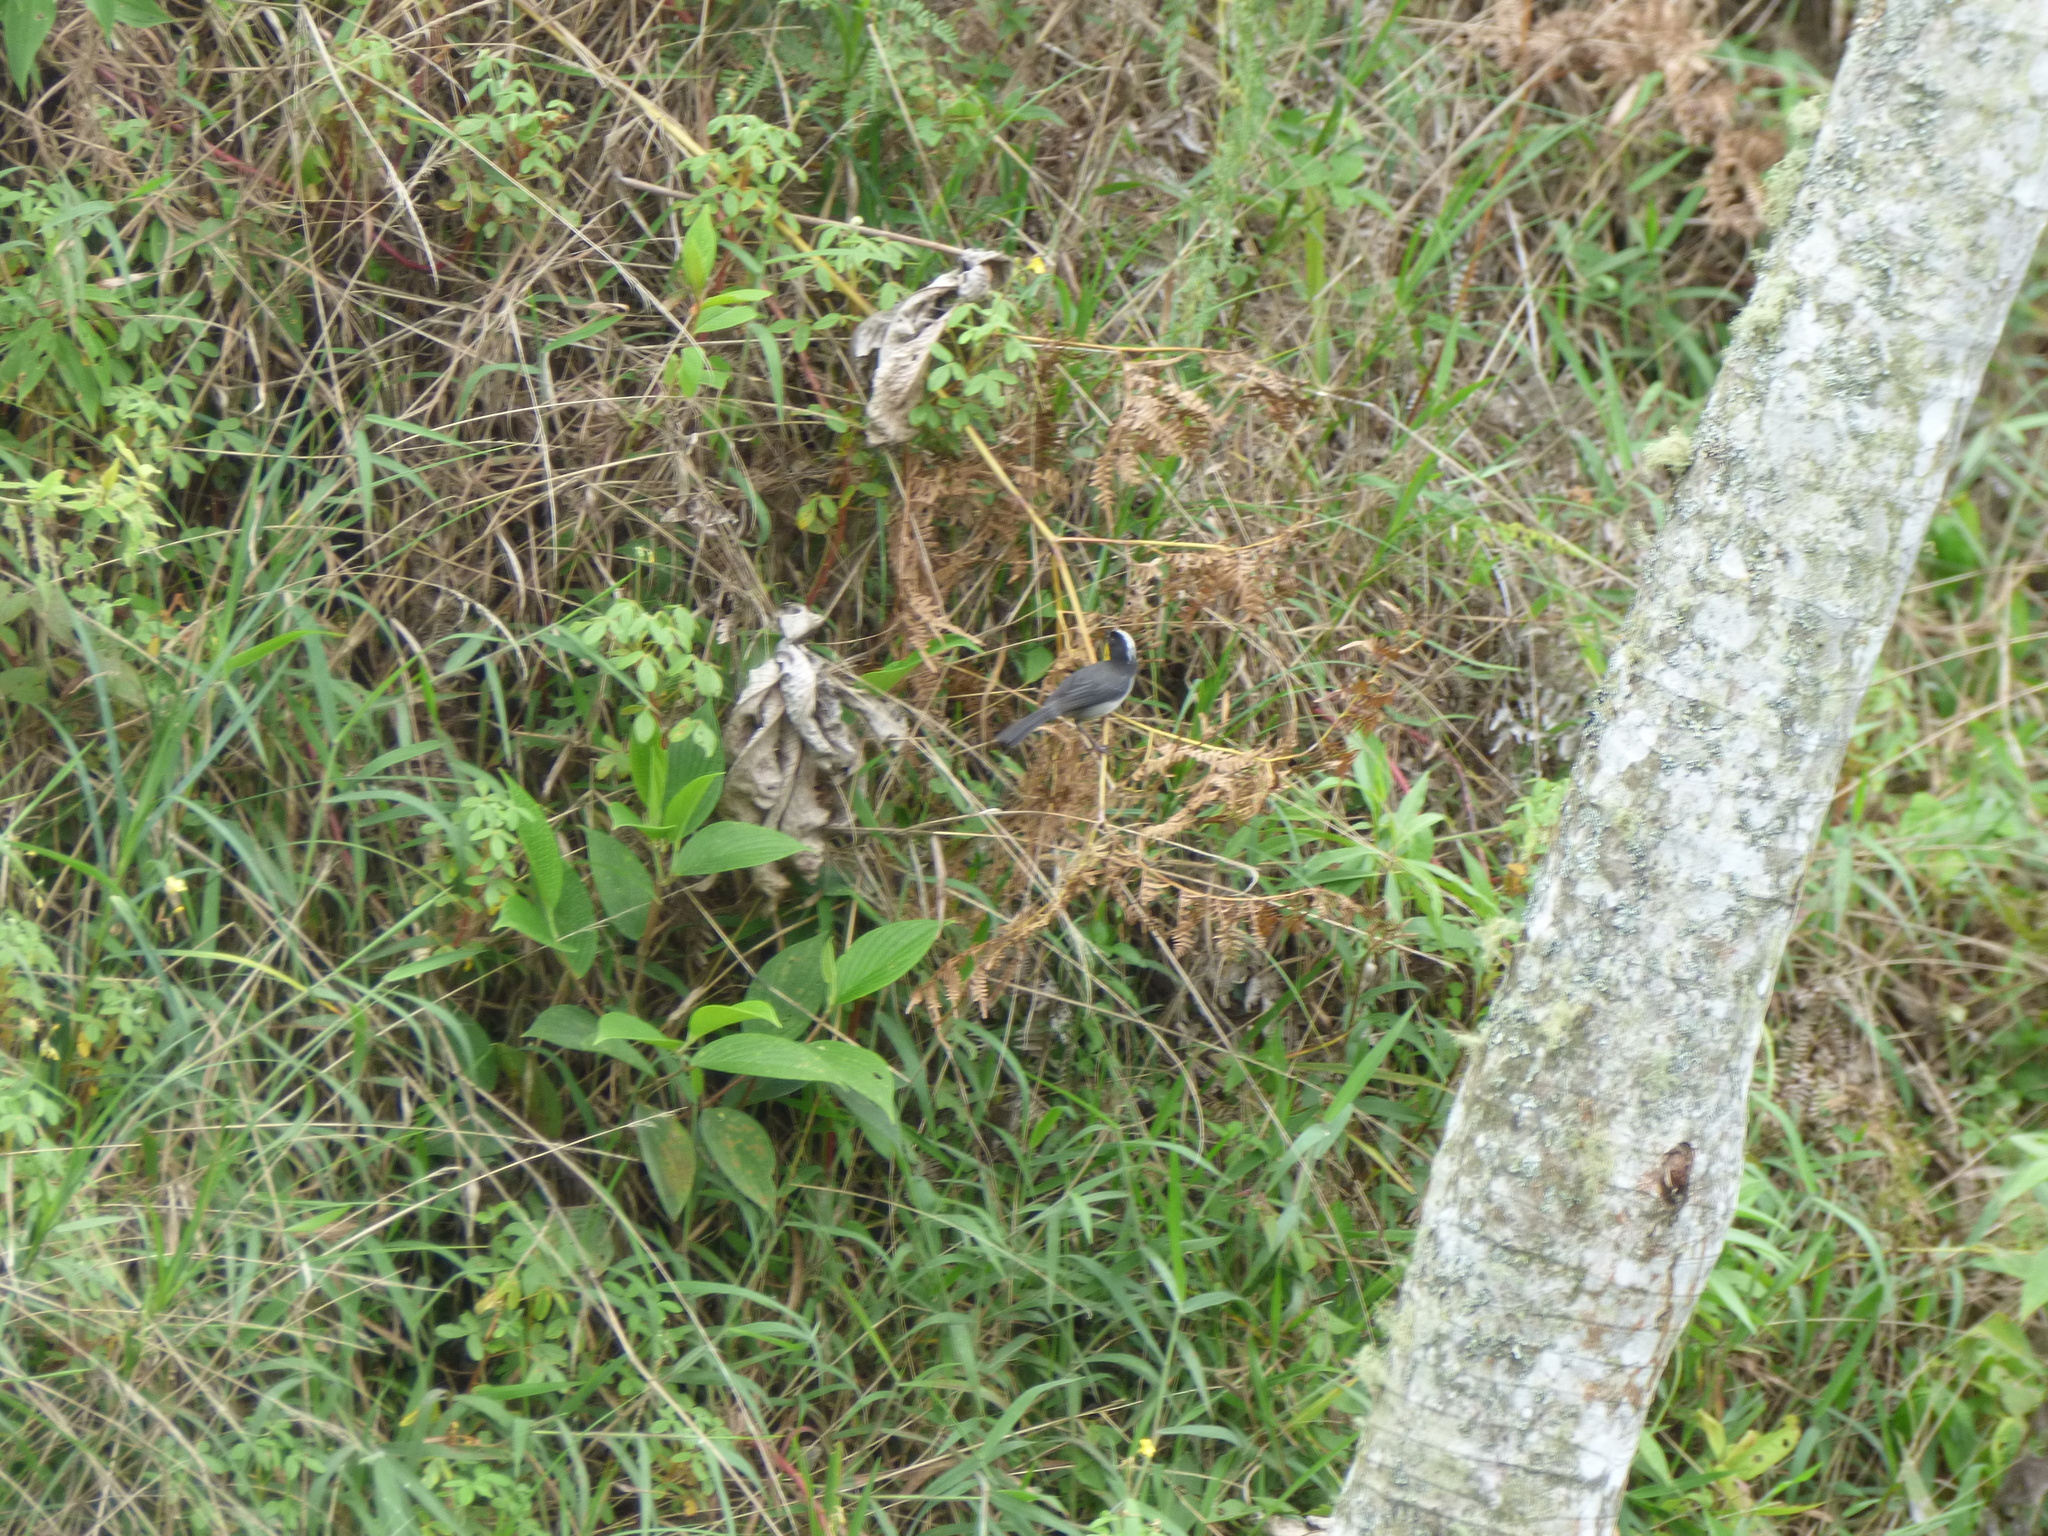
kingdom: Animalia
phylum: Chordata
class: Aves
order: Passeriformes
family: Passerellidae
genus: Atlapetes
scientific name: Atlapetes albinucha
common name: White-naped brush-finch
